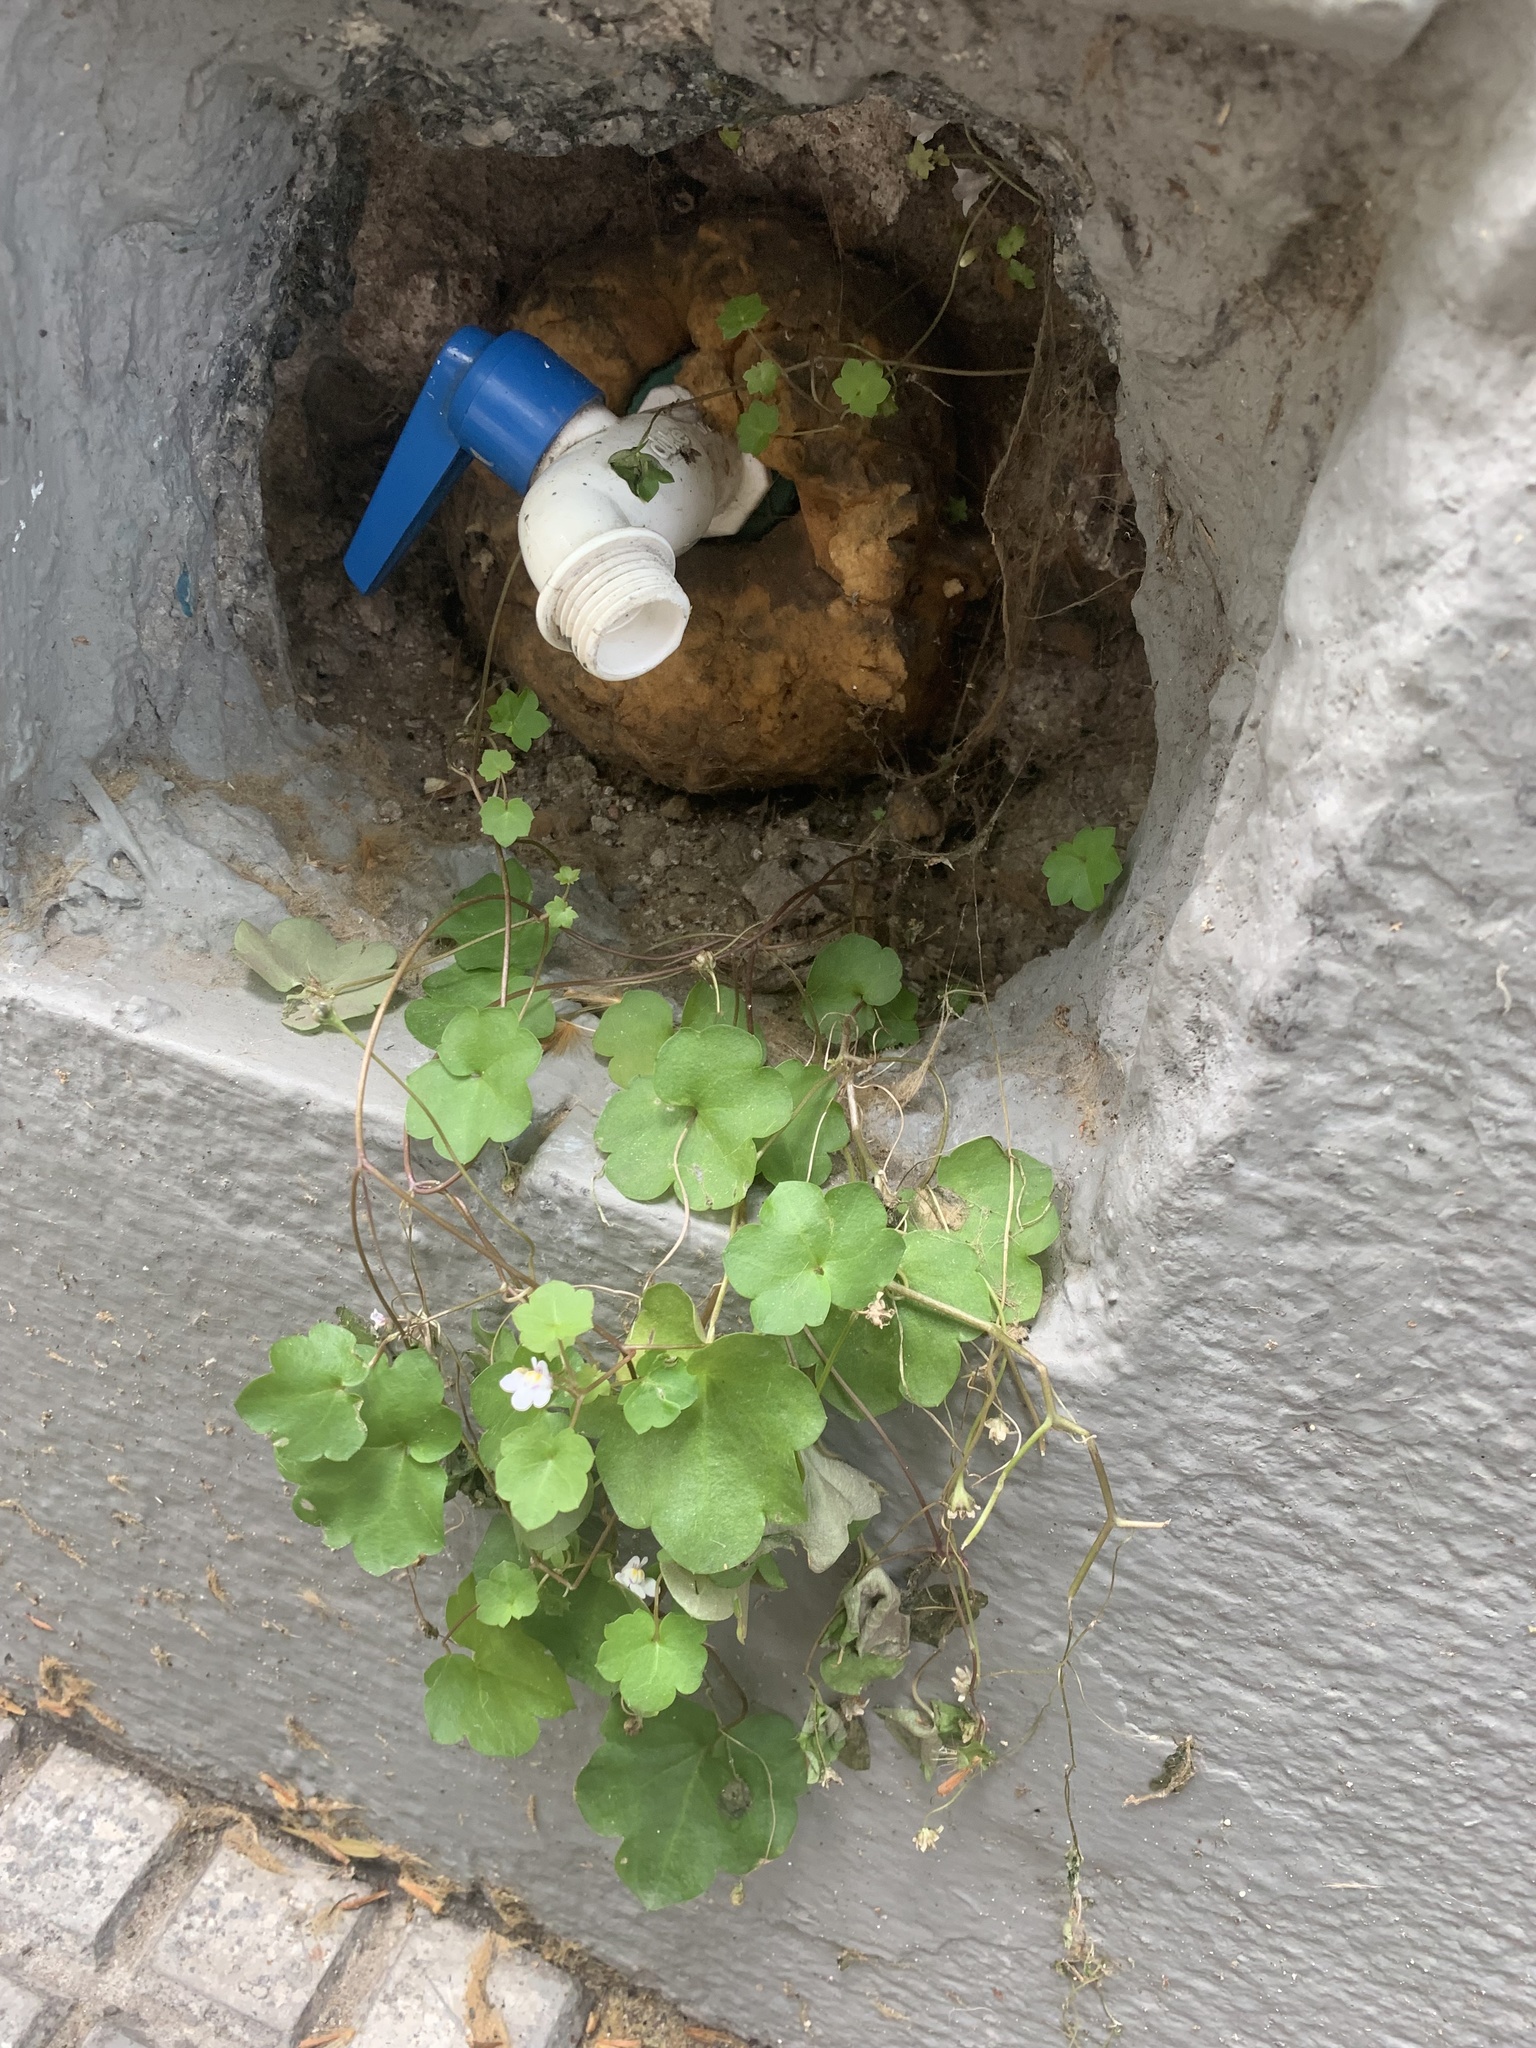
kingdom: Plantae
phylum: Tracheophyta
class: Magnoliopsida
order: Lamiales
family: Plantaginaceae
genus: Cymbalaria
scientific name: Cymbalaria muralis
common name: Ivy-leaved toadflax
